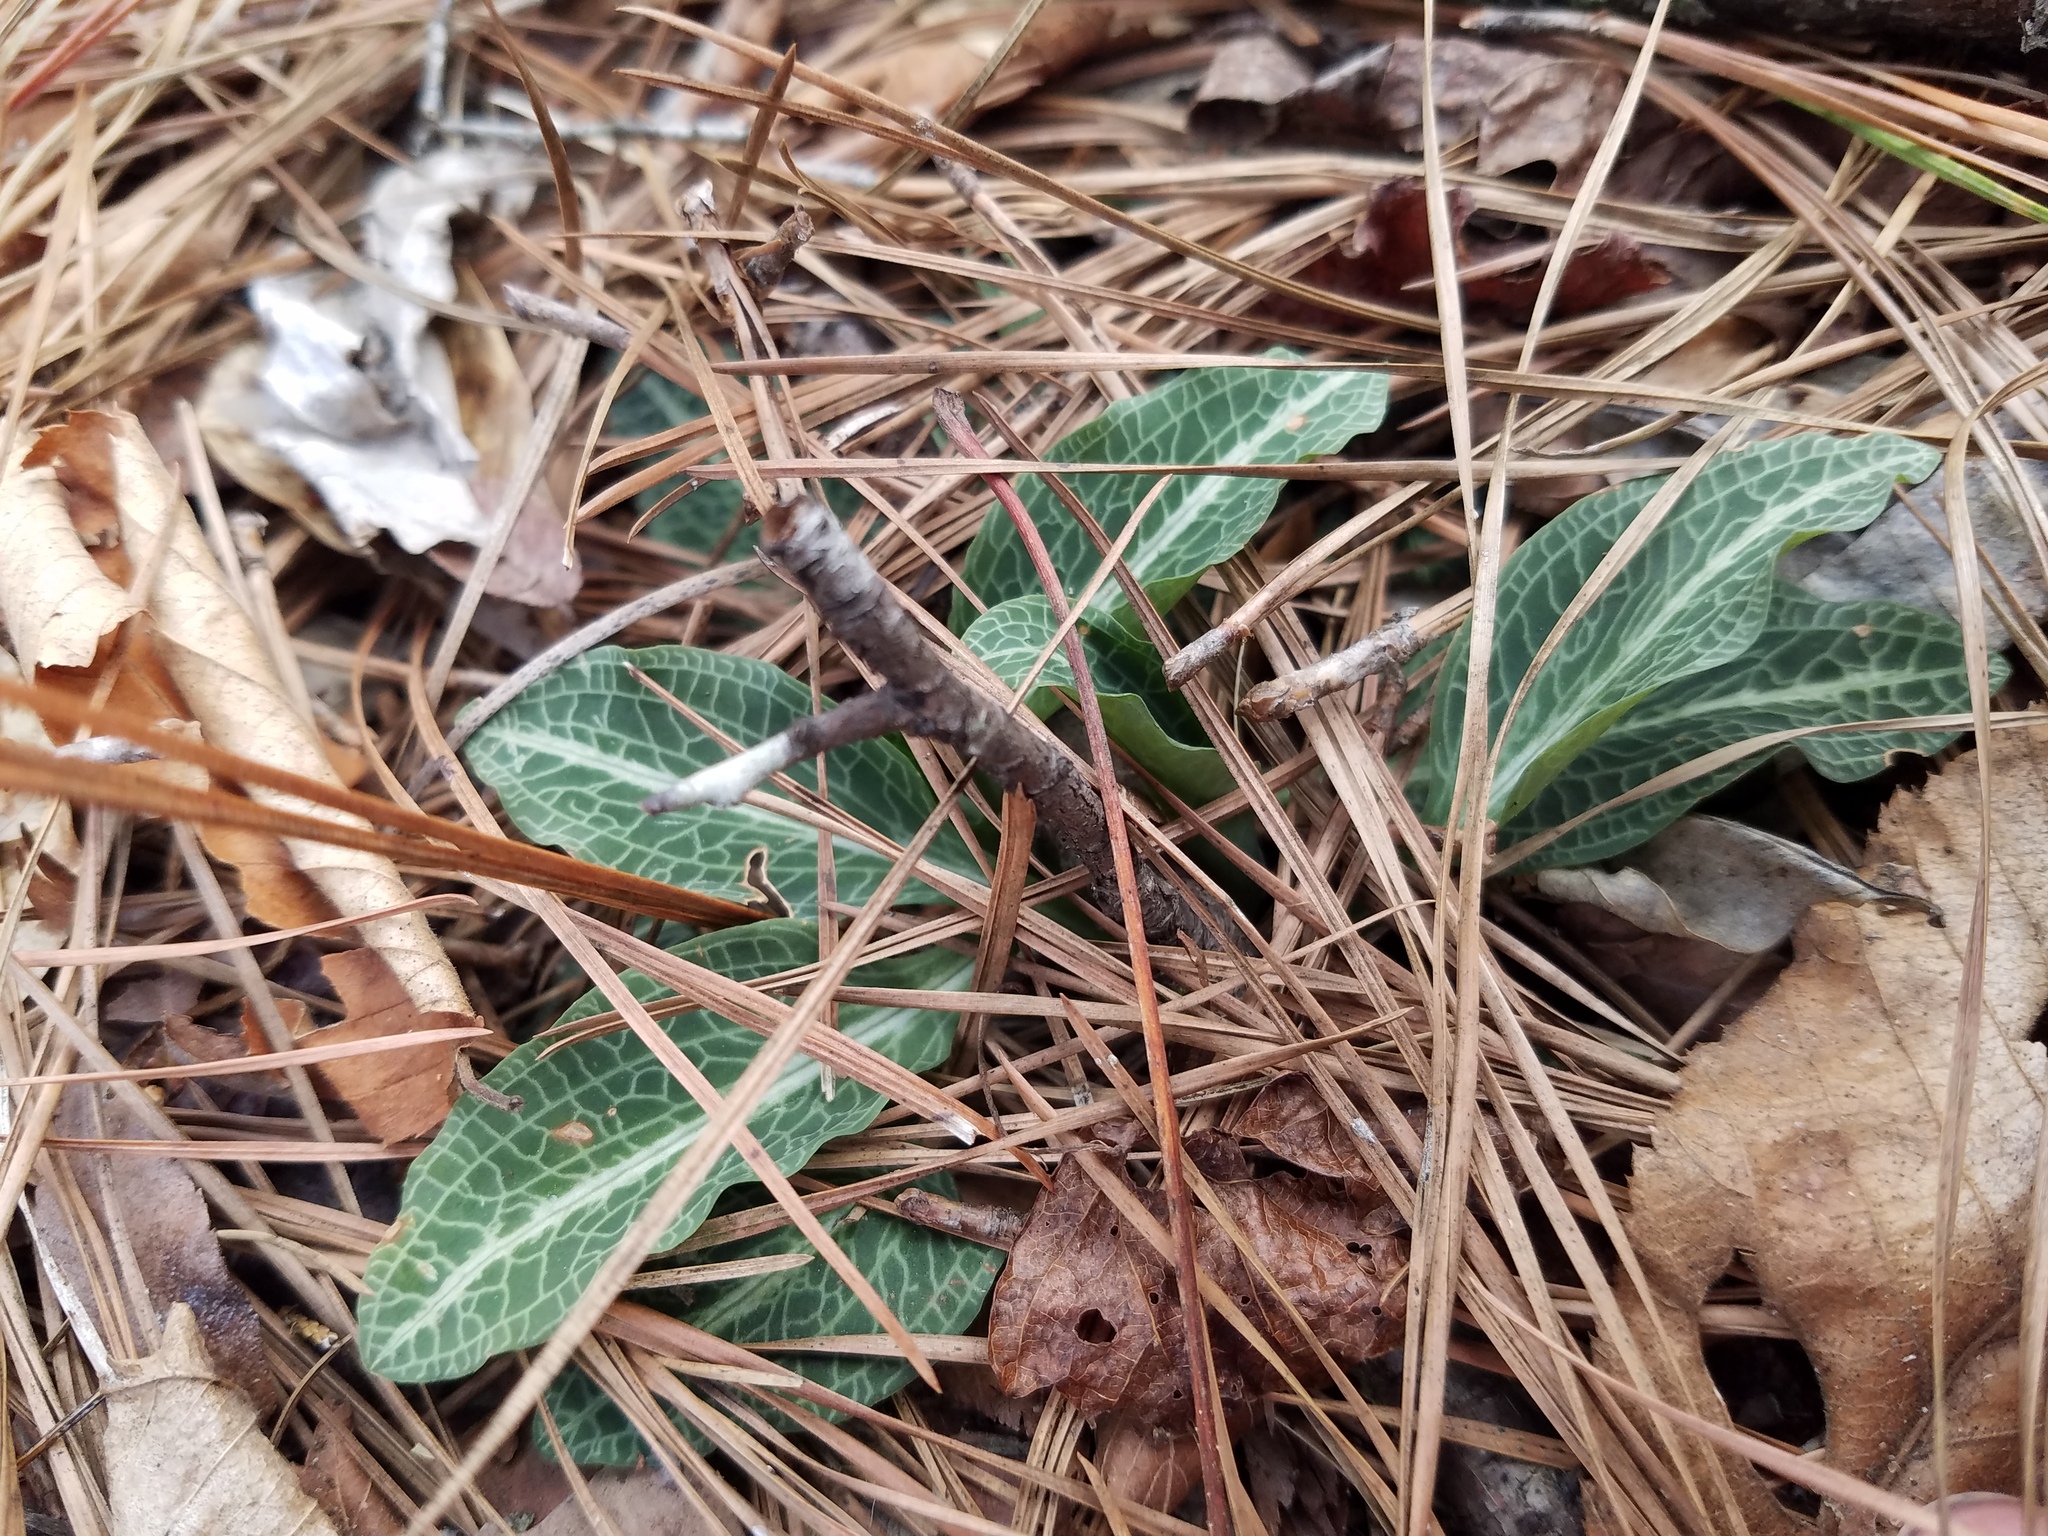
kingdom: Plantae
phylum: Tracheophyta
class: Liliopsida
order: Asparagales
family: Orchidaceae
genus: Goodyera
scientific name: Goodyera pubescens
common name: Downy rattlesnake-plantain
